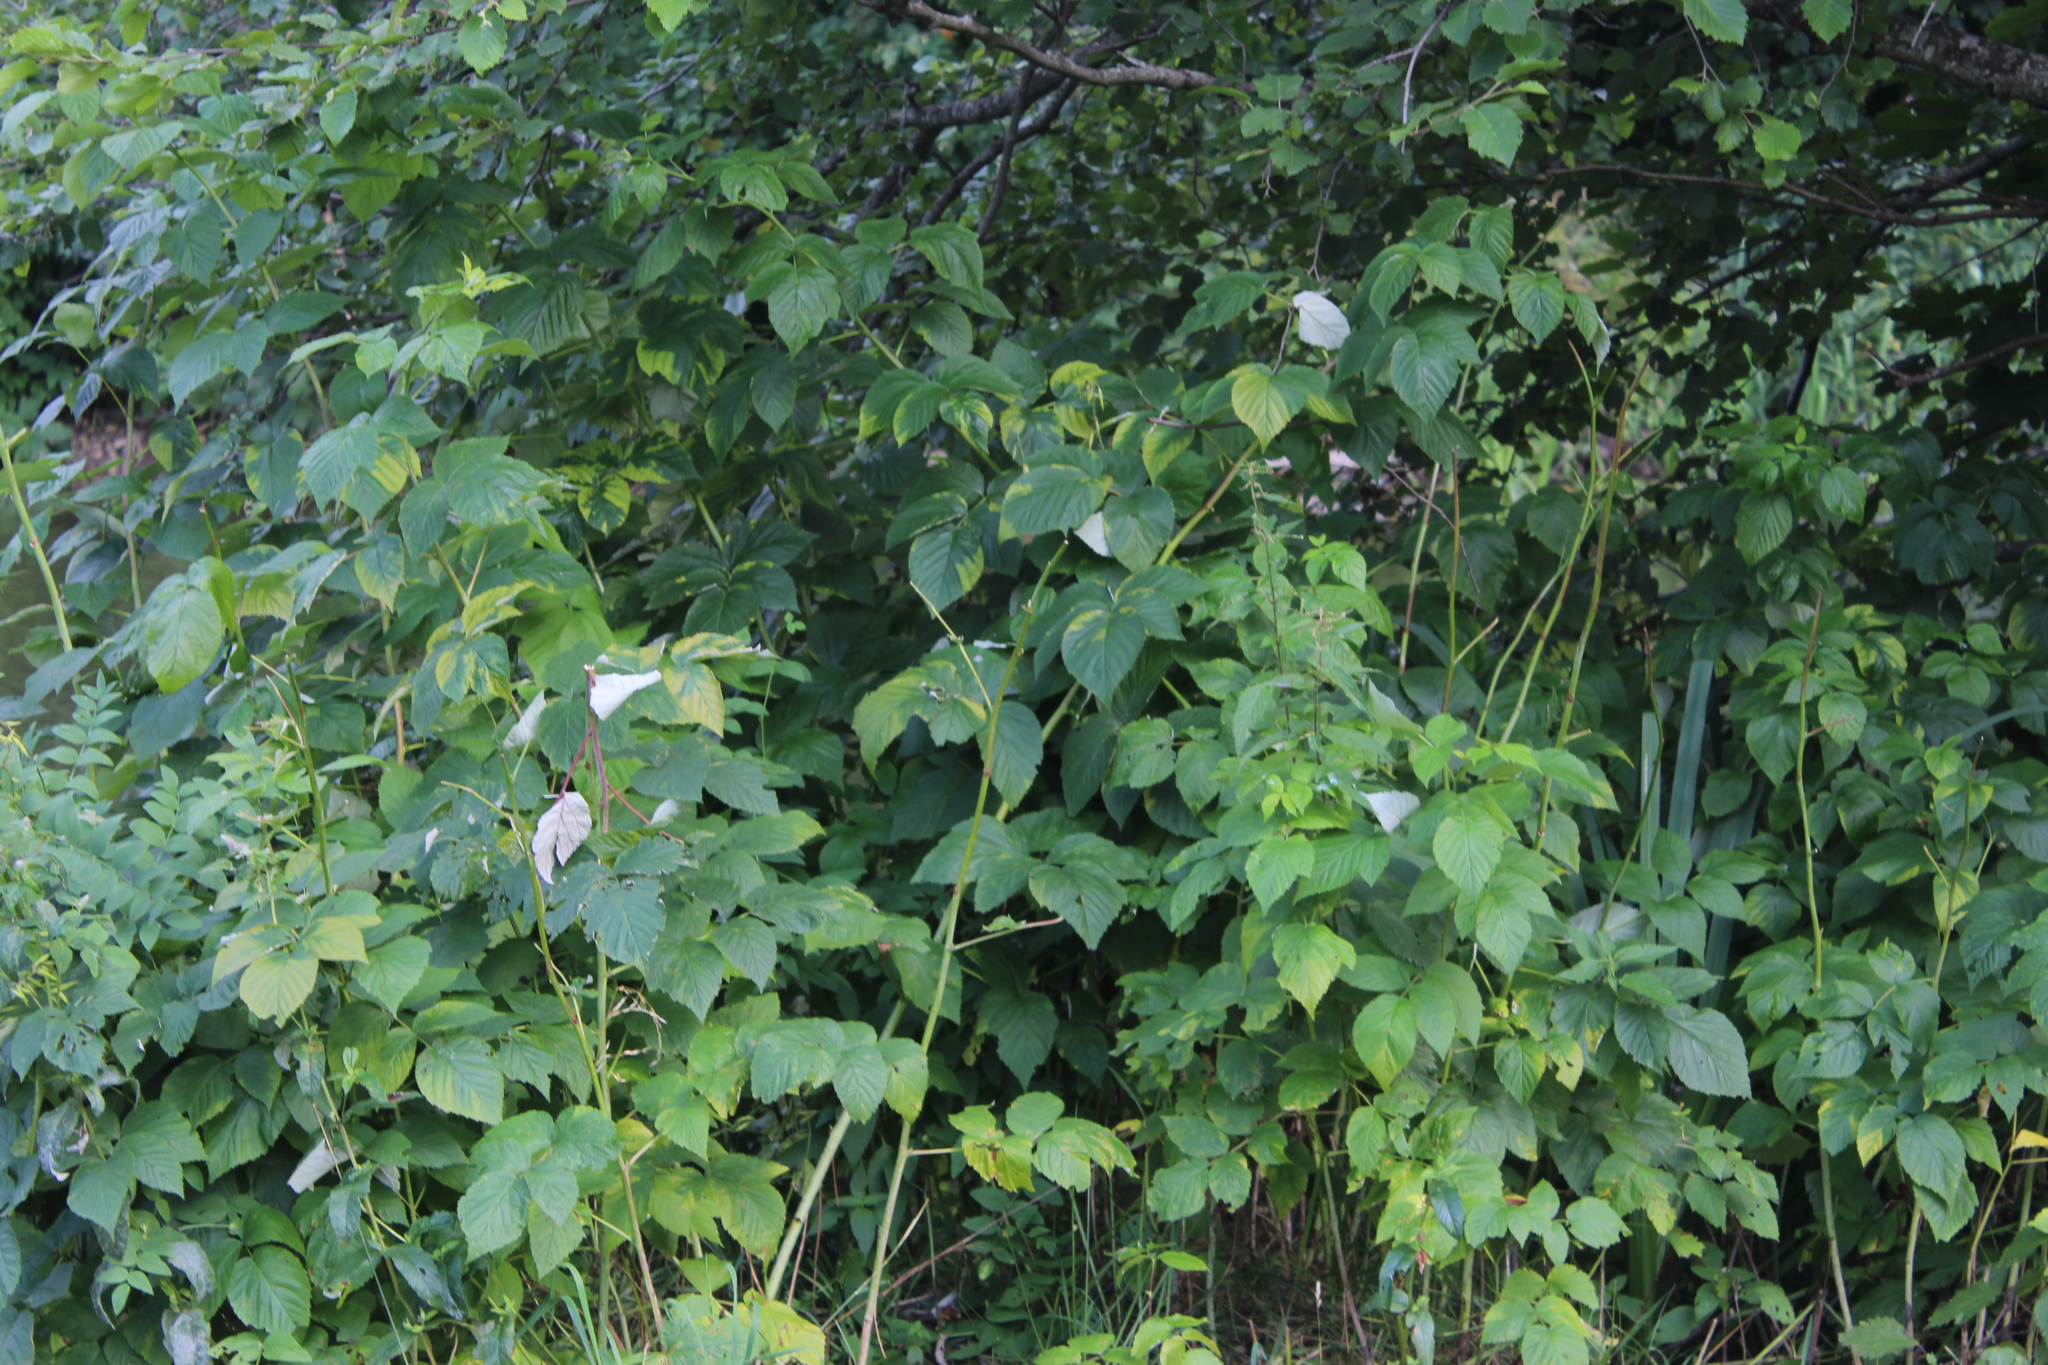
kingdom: Plantae
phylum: Tracheophyta
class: Magnoliopsida
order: Rosales
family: Rosaceae
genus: Rubus
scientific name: Rubus idaeus
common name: Raspberry
